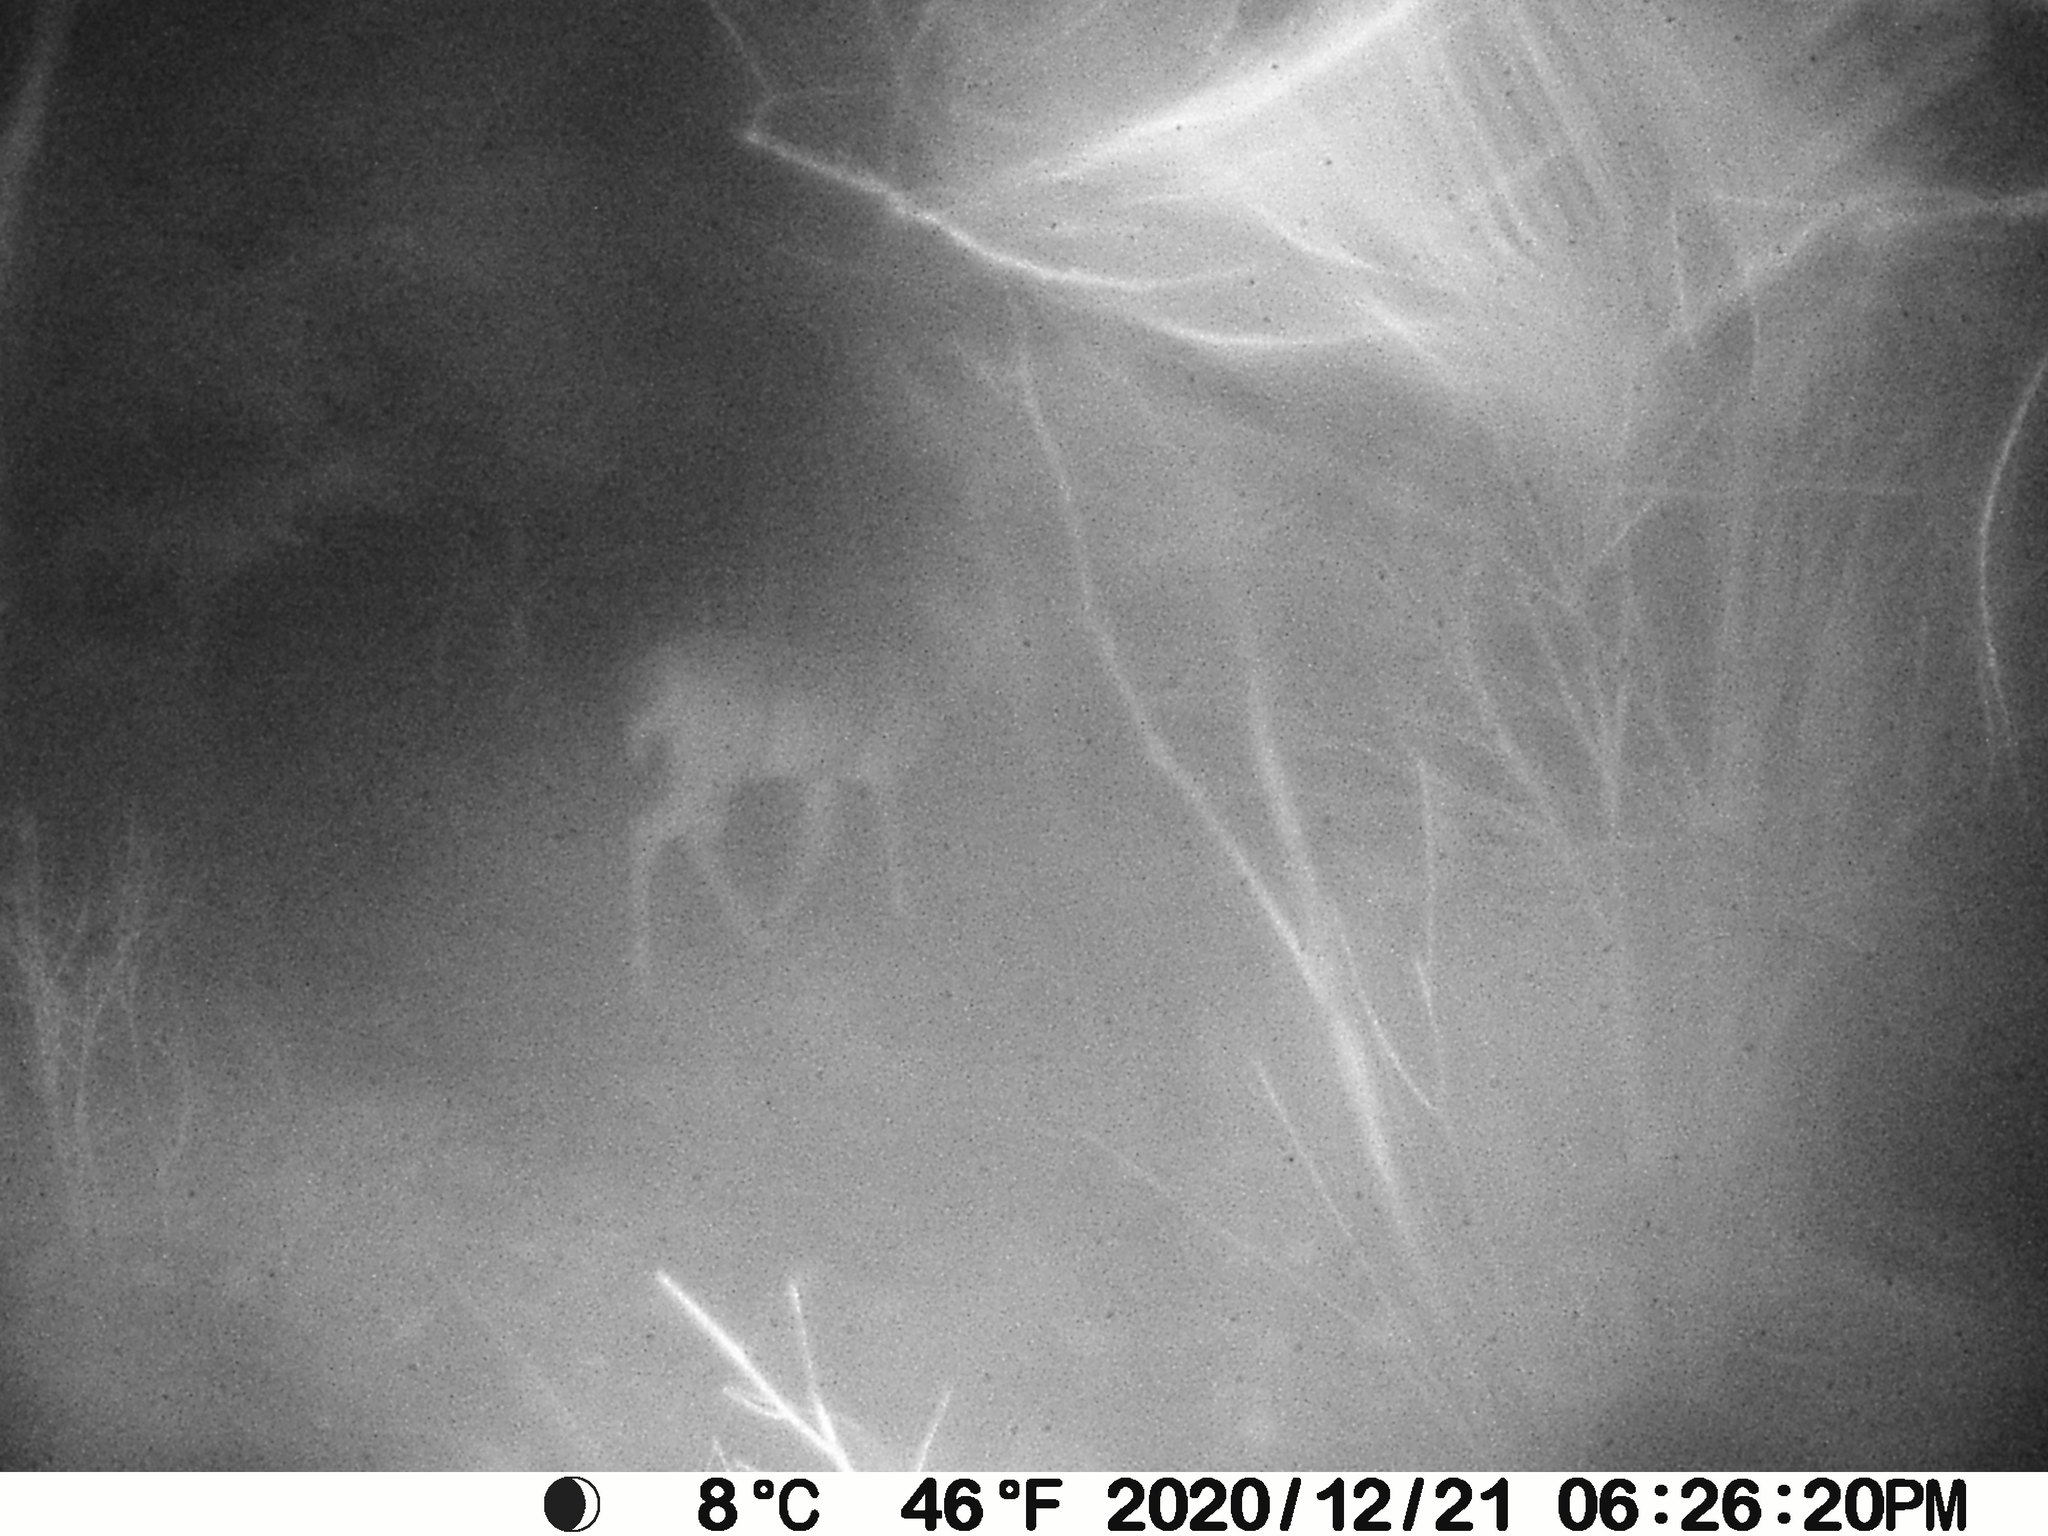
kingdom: Animalia
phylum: Chordata
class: Mammalia
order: Artiodactyla
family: Cervidae
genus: Odocoileus
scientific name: Odocoileus virginianus
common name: White-tailed deer
